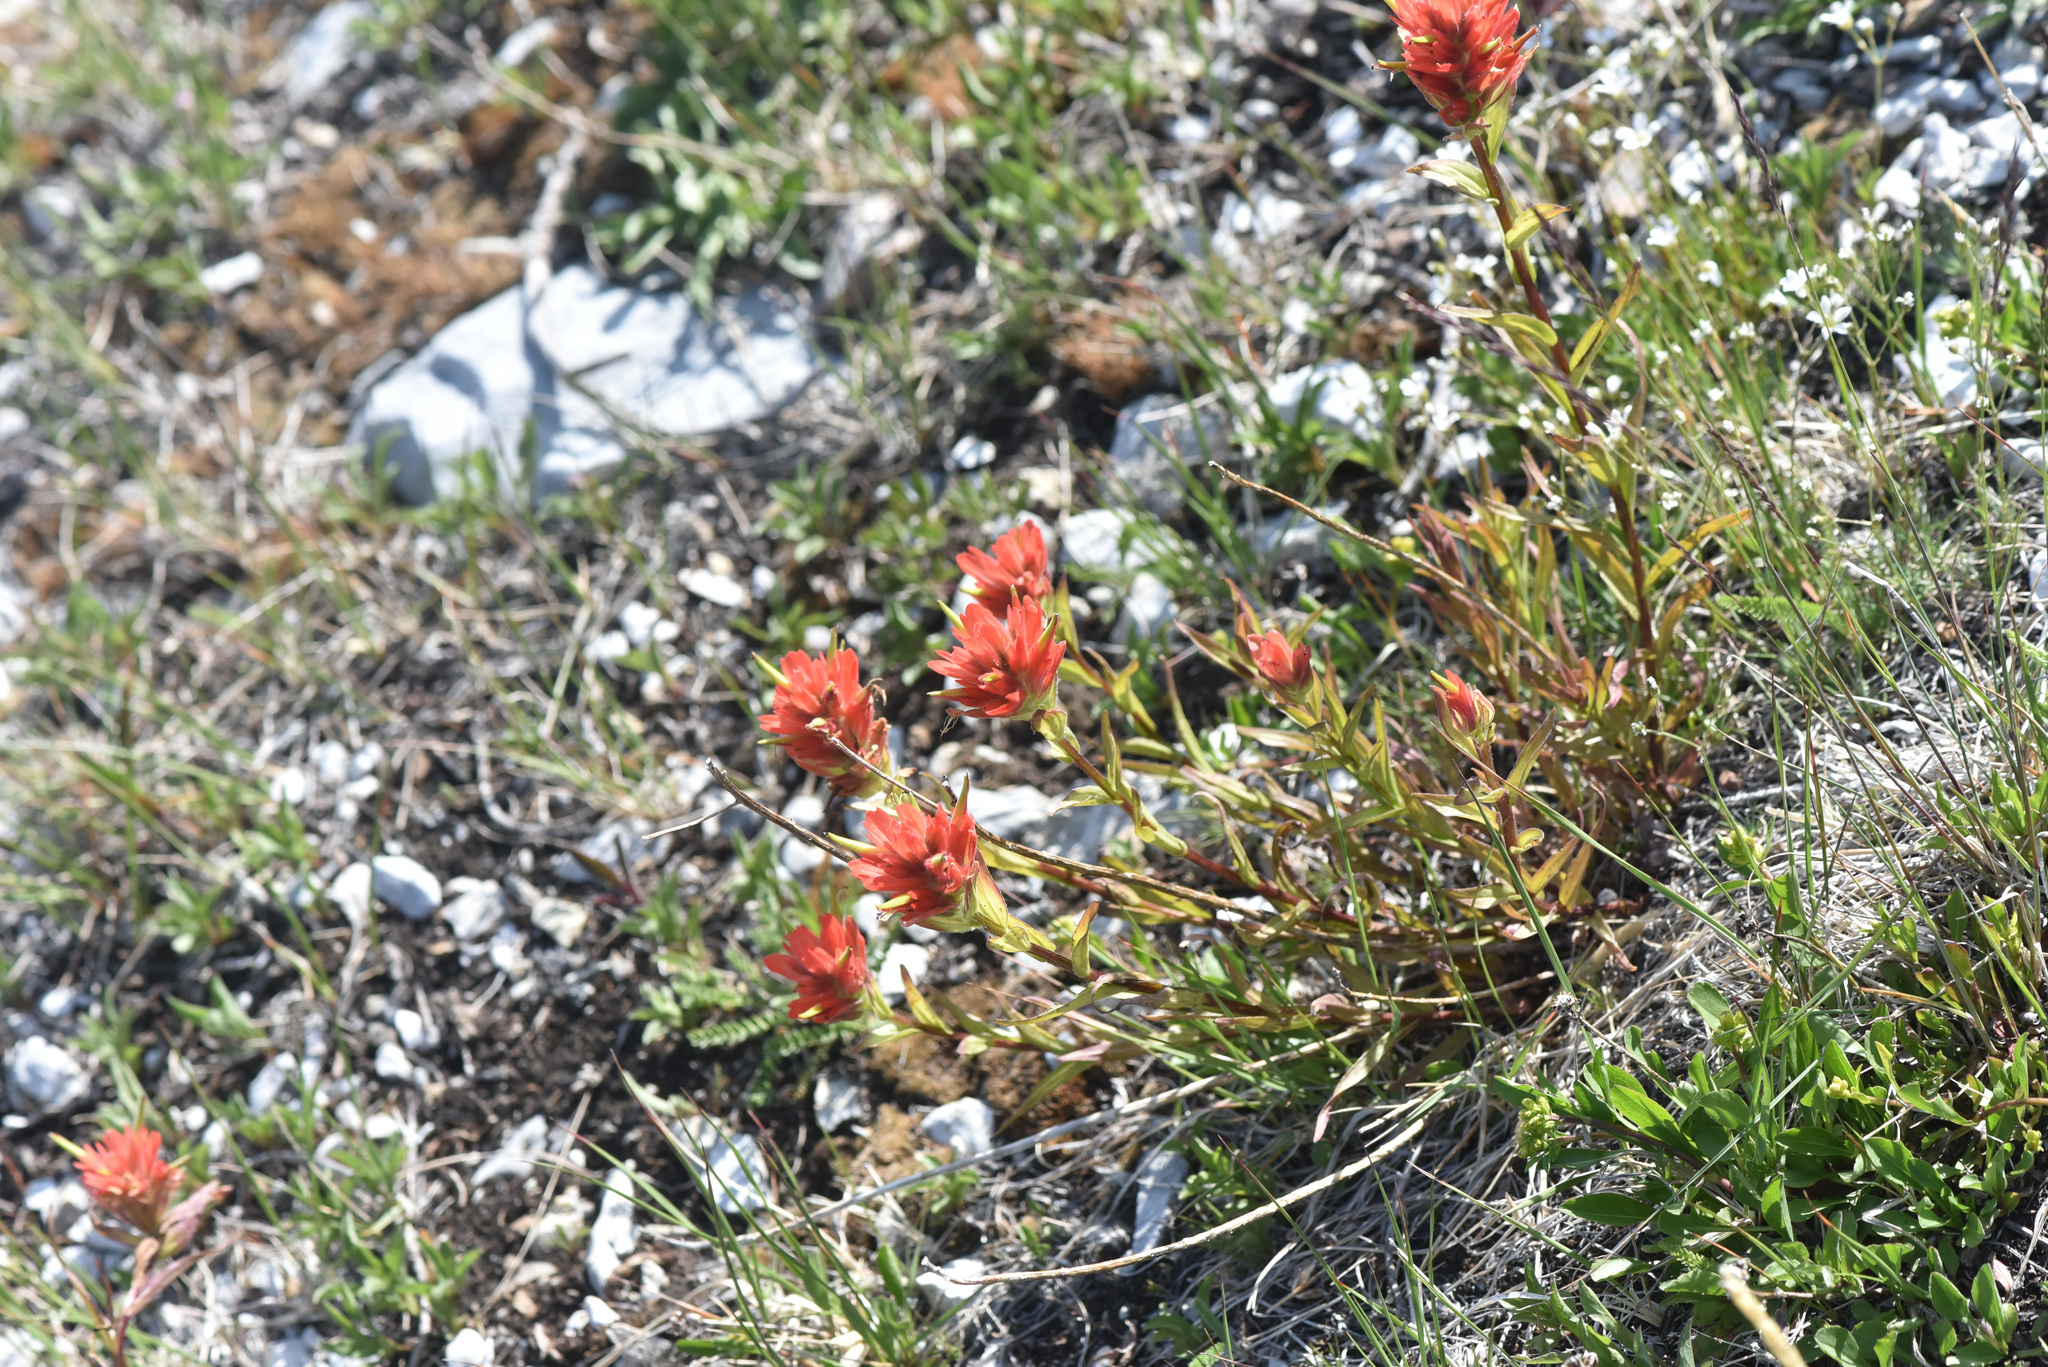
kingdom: Plantae
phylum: Tracheophyta
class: Magnoliopsida
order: Lamiales
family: Orobanchaceae
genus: Castilleja
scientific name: Castilleja miniata
